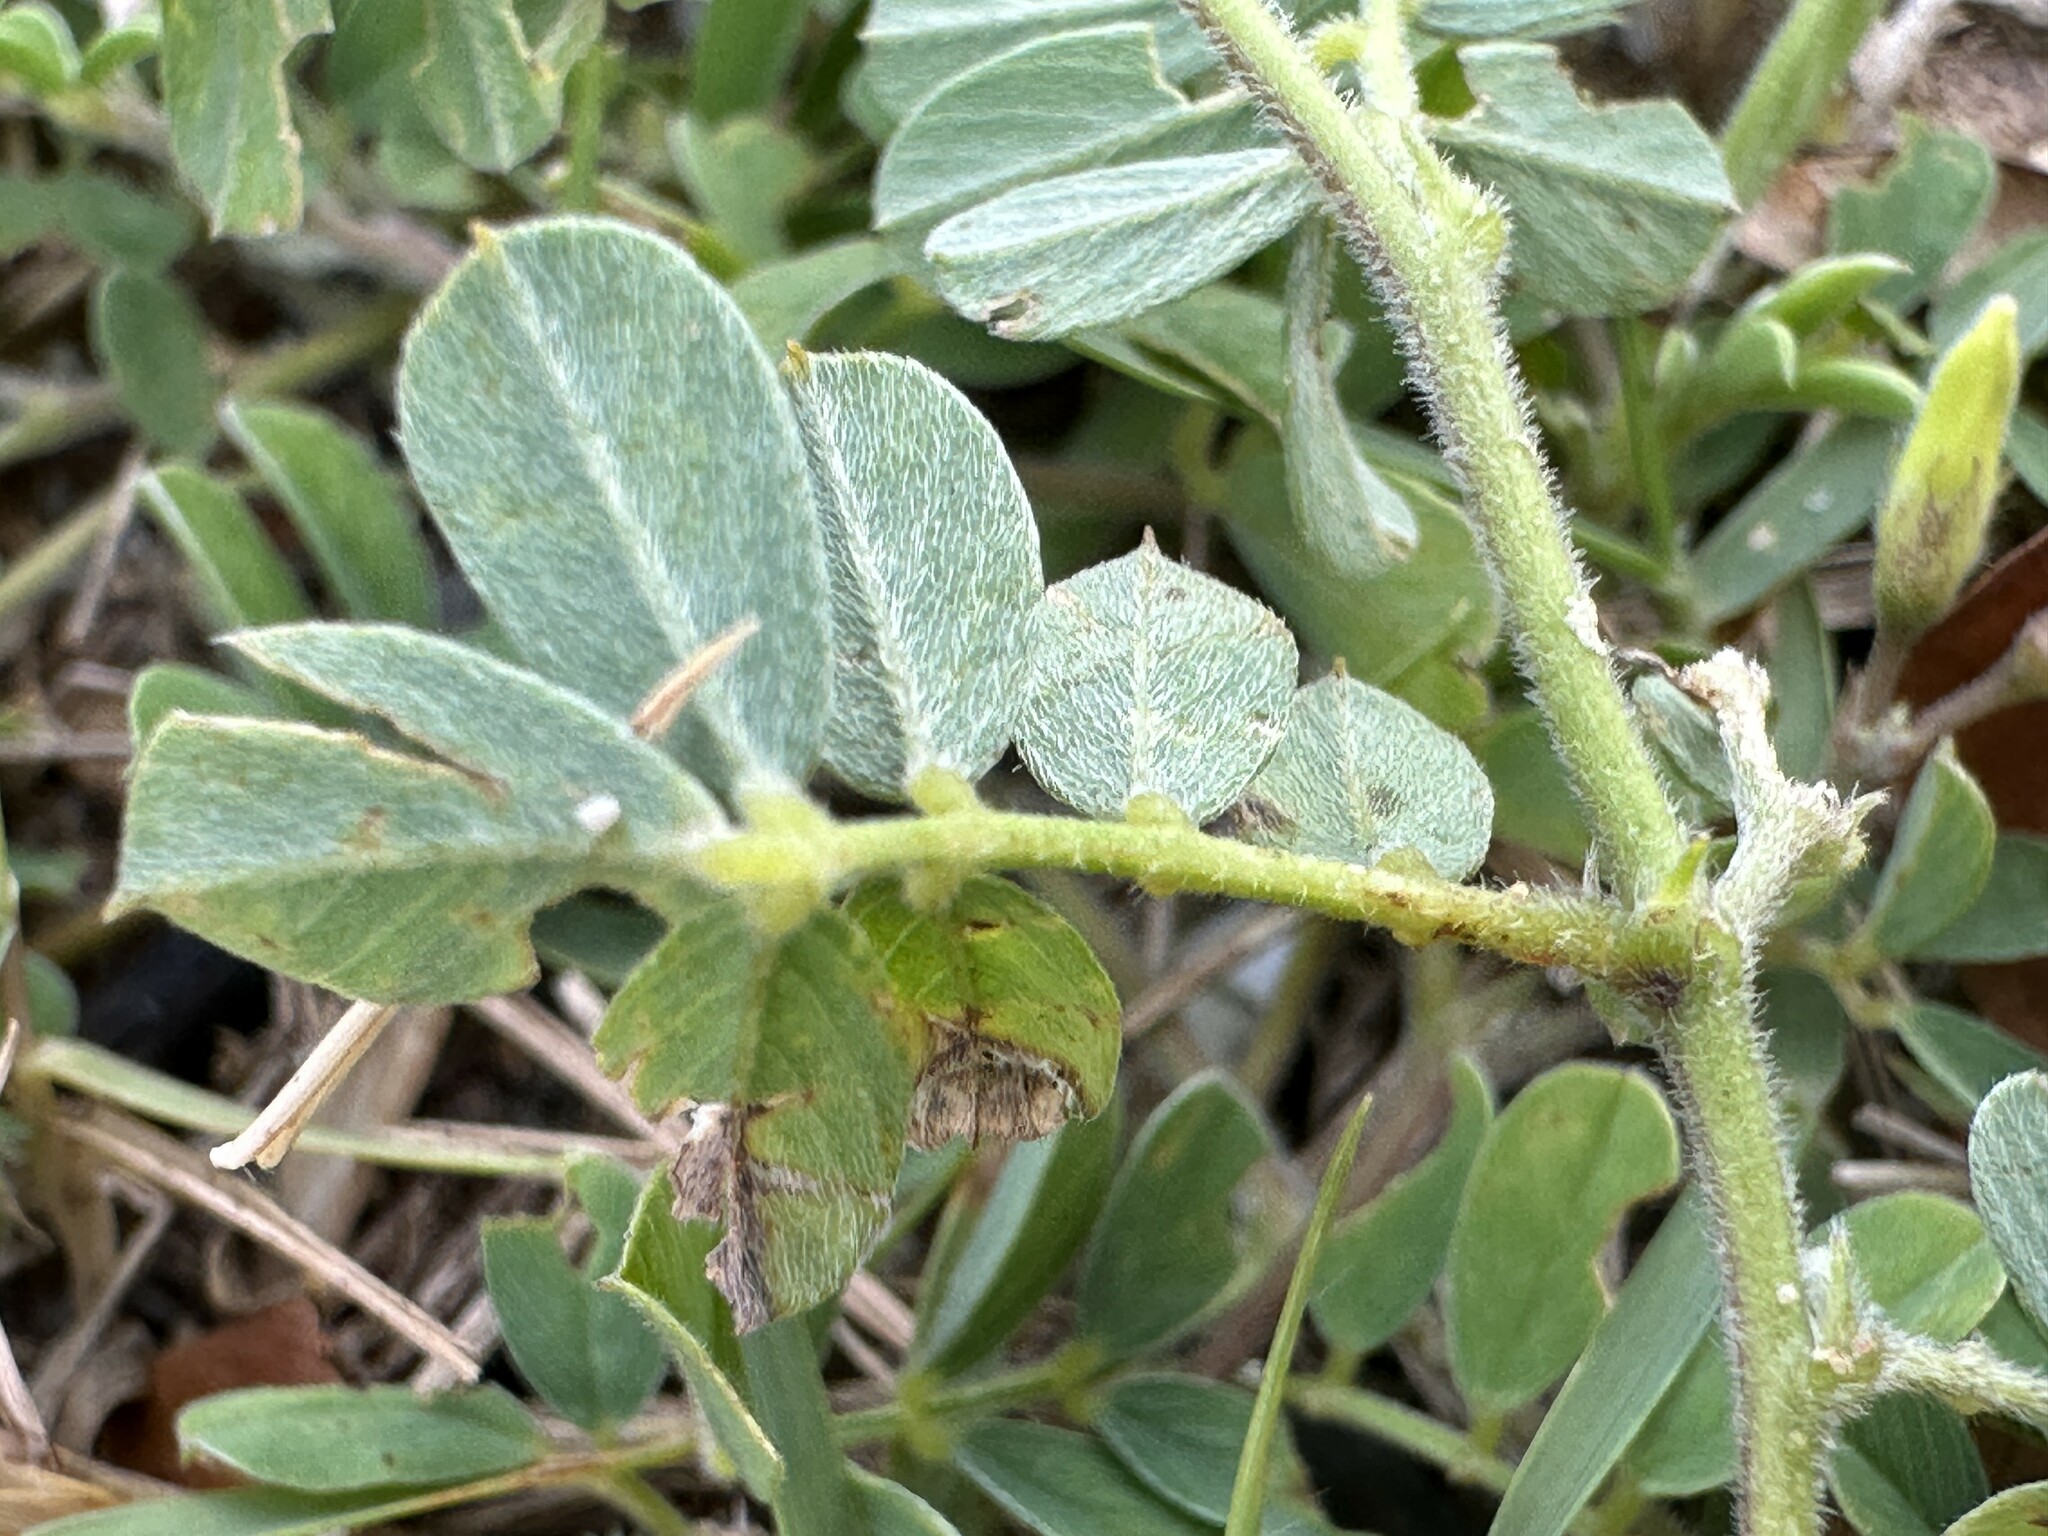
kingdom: Plantae
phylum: Tracheophyta
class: Magnoliopsida
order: Fabales
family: Fabaceae
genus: Tephrosia
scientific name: Tephrosia pumila
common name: Indigo sauvage
